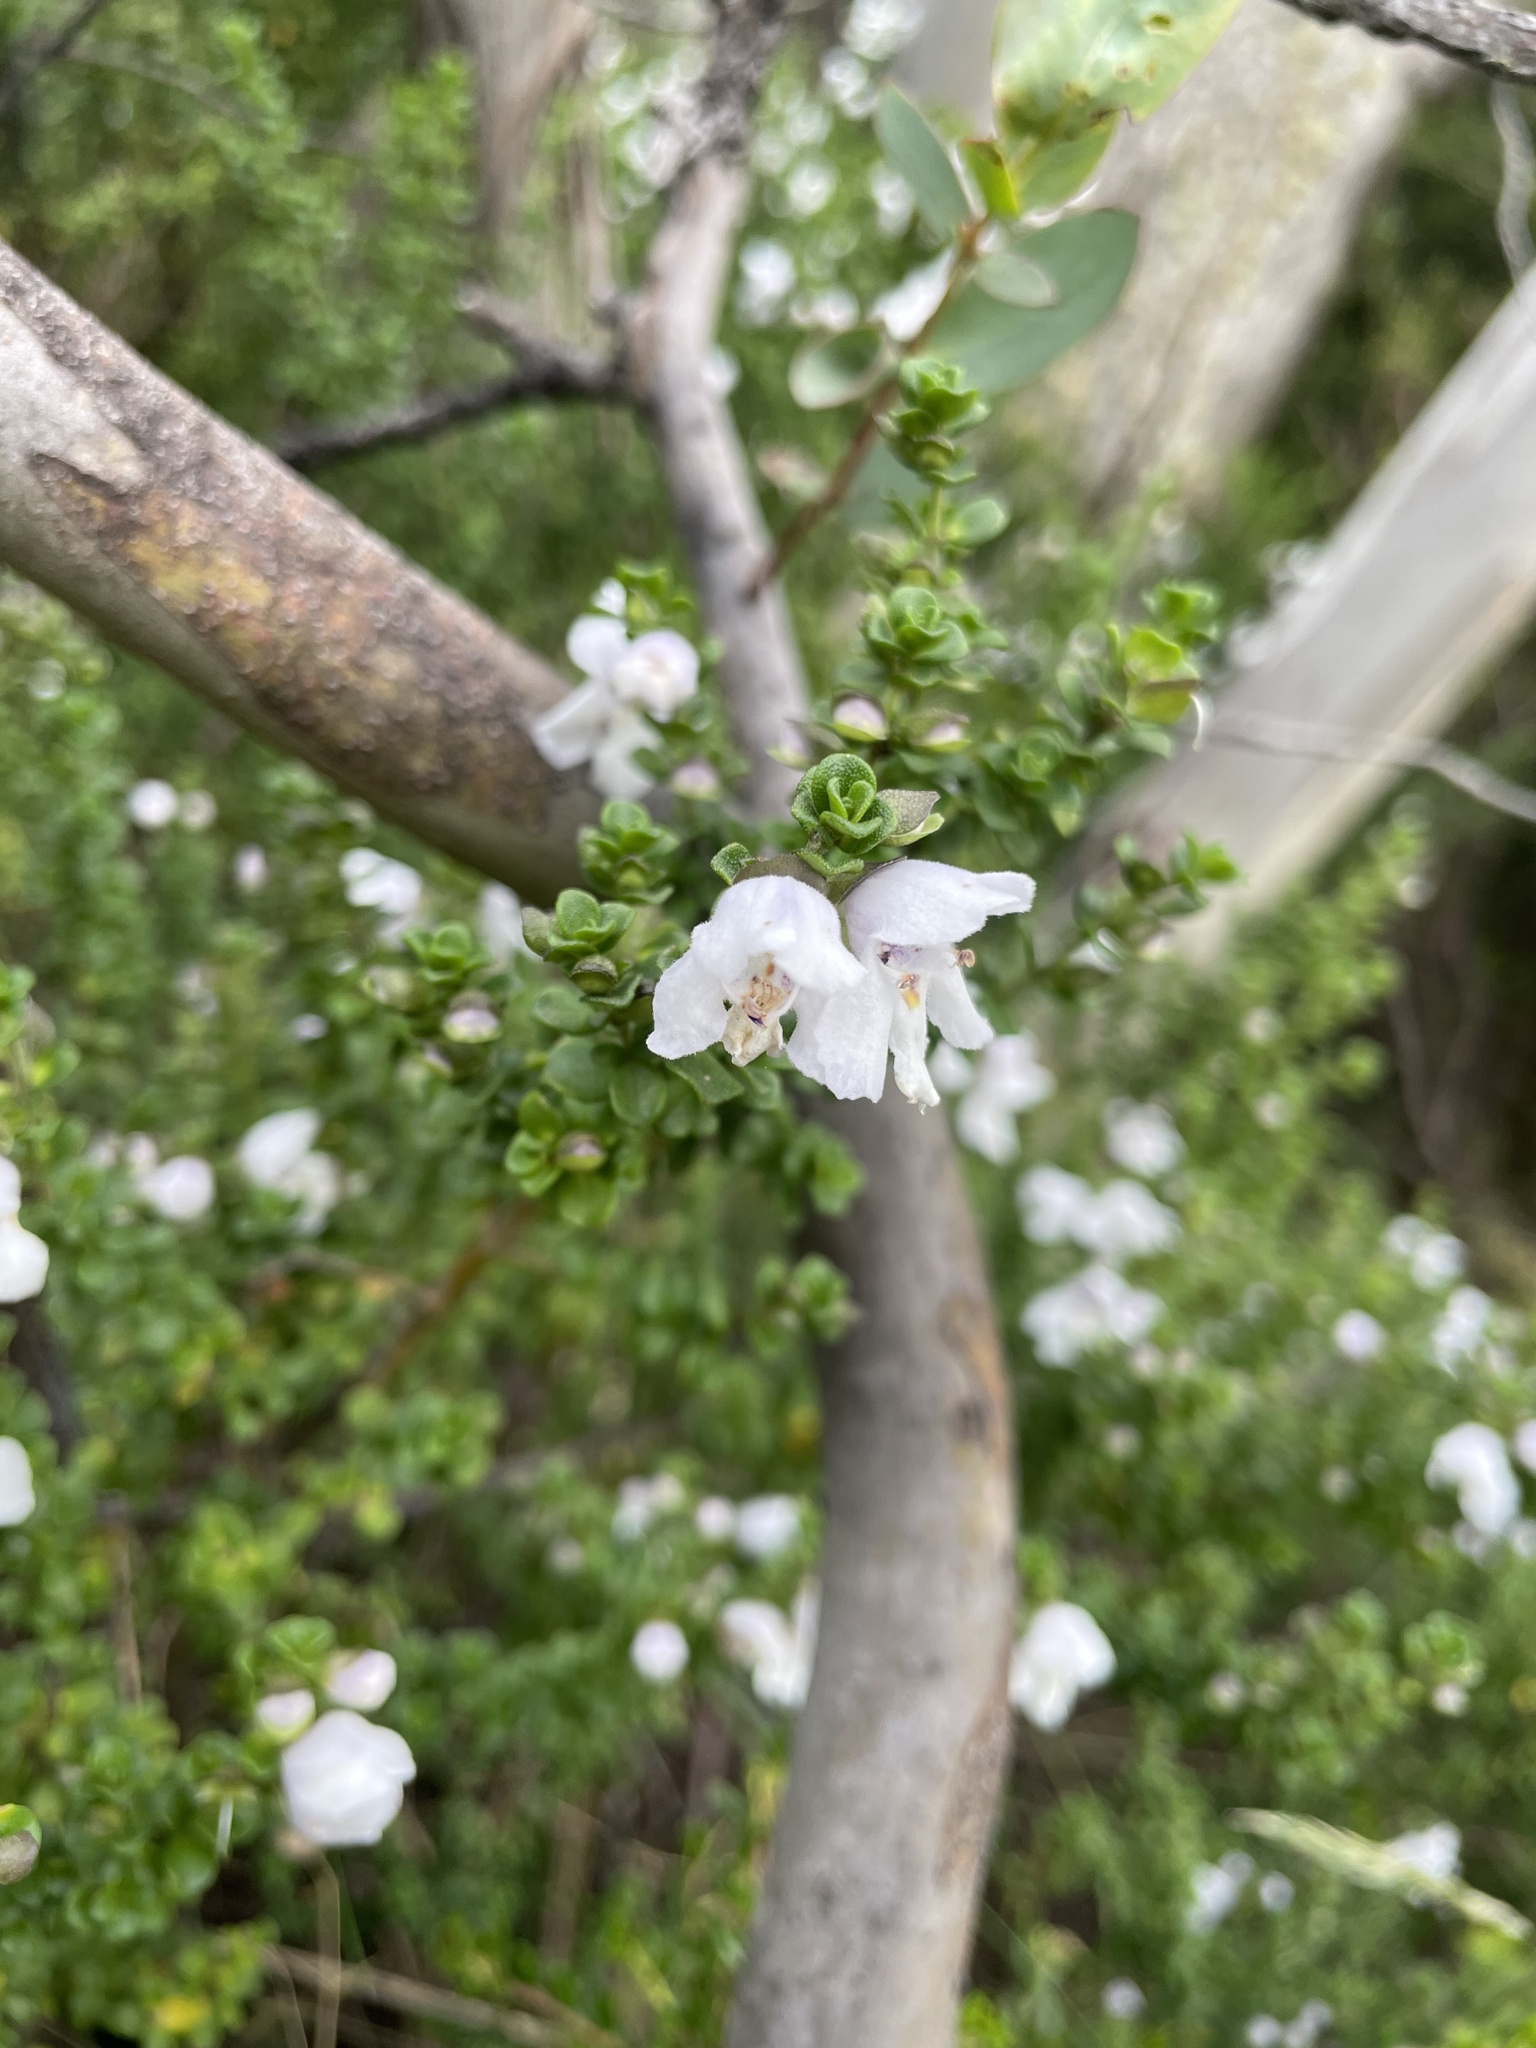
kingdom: Plantae
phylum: Tracheophyta
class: Magnoliopsida
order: Lamiales
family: Lamiaceae
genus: Prostanthera
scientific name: Prostanthera cuneata
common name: Alpine mintbush
